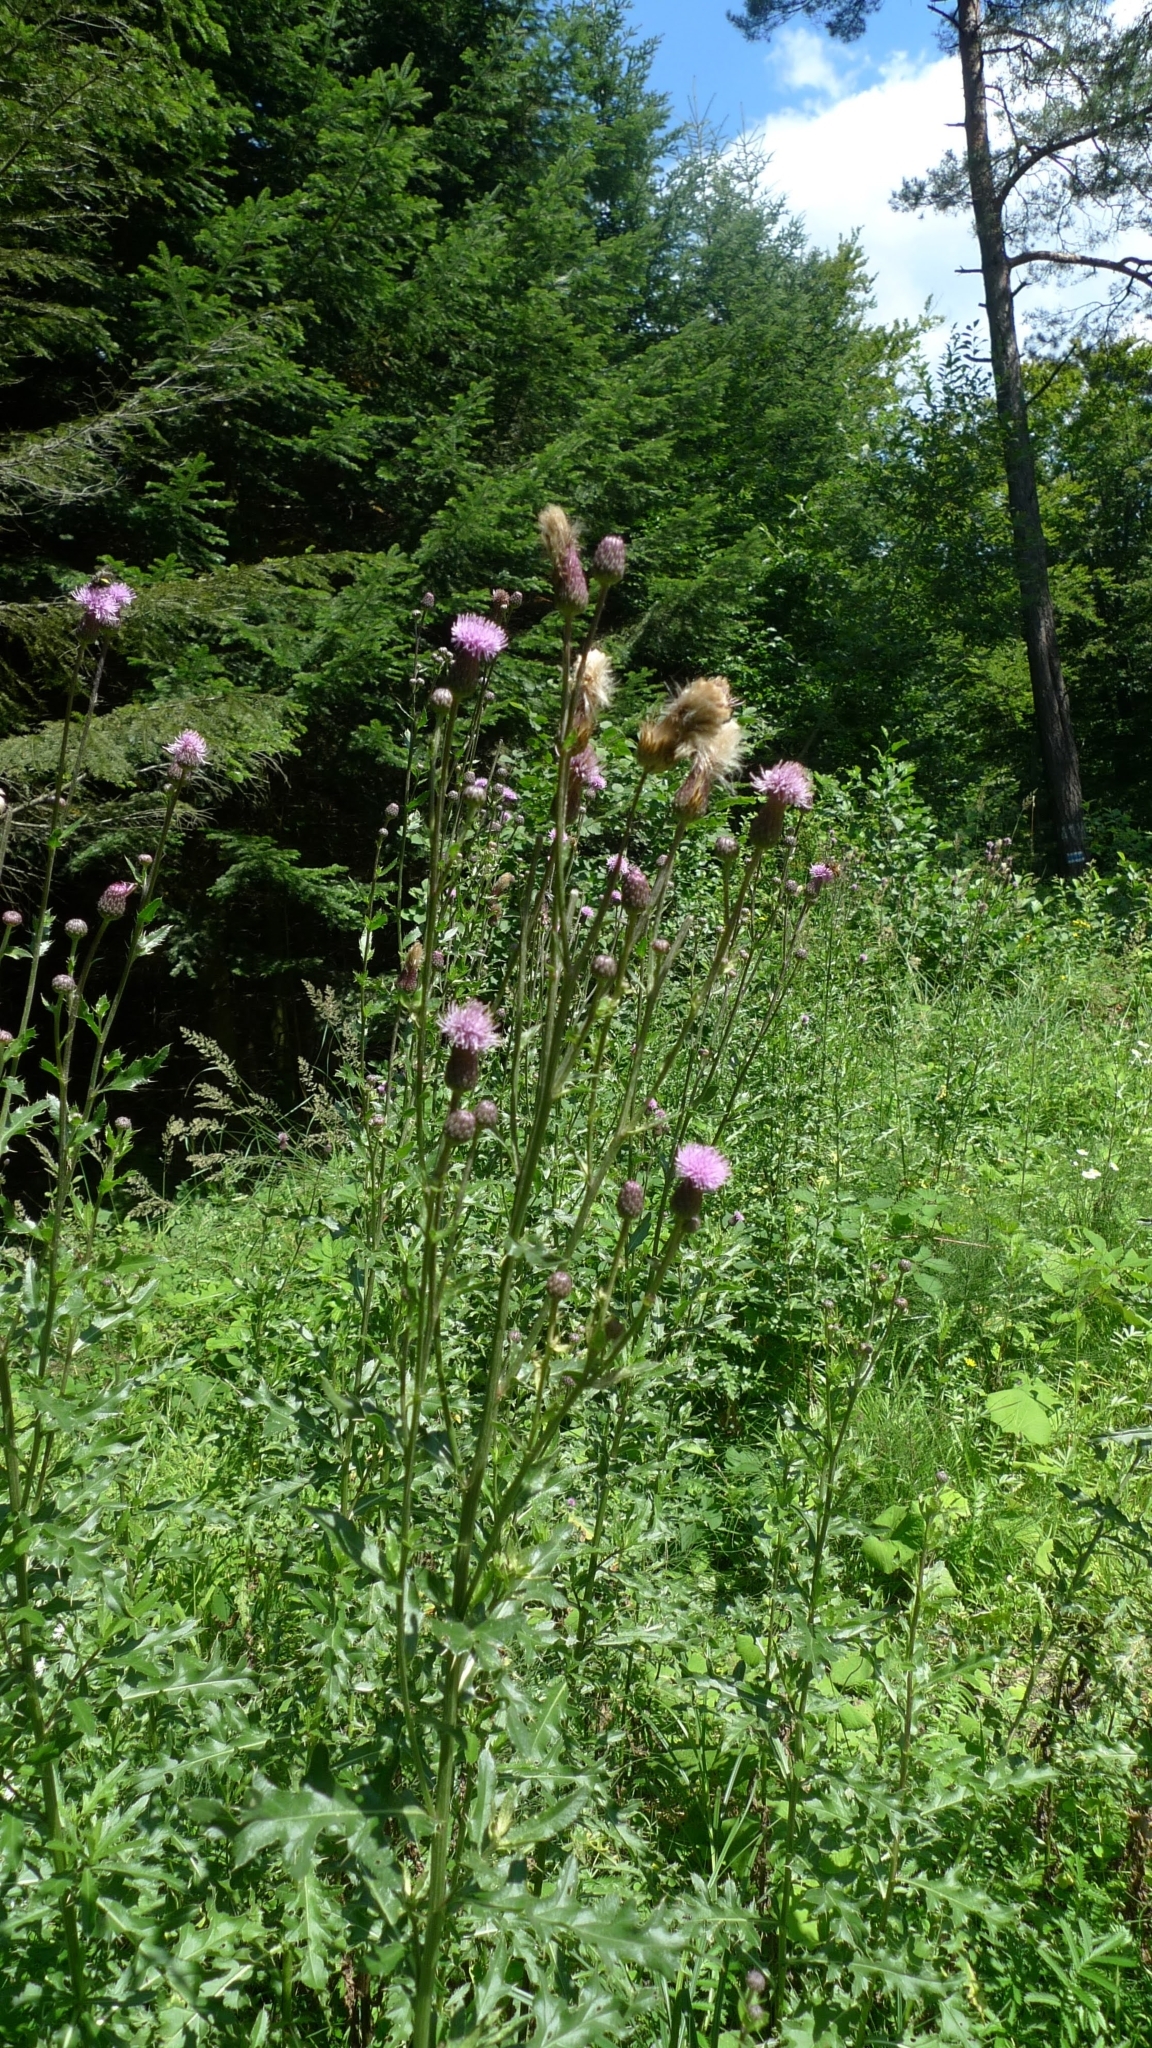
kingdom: Plantae
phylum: Tracheophyta
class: Magnoliopsida
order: Asterales
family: Asteraceae
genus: Cirsium
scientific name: Cirsium arvense
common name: Creeping thistle
